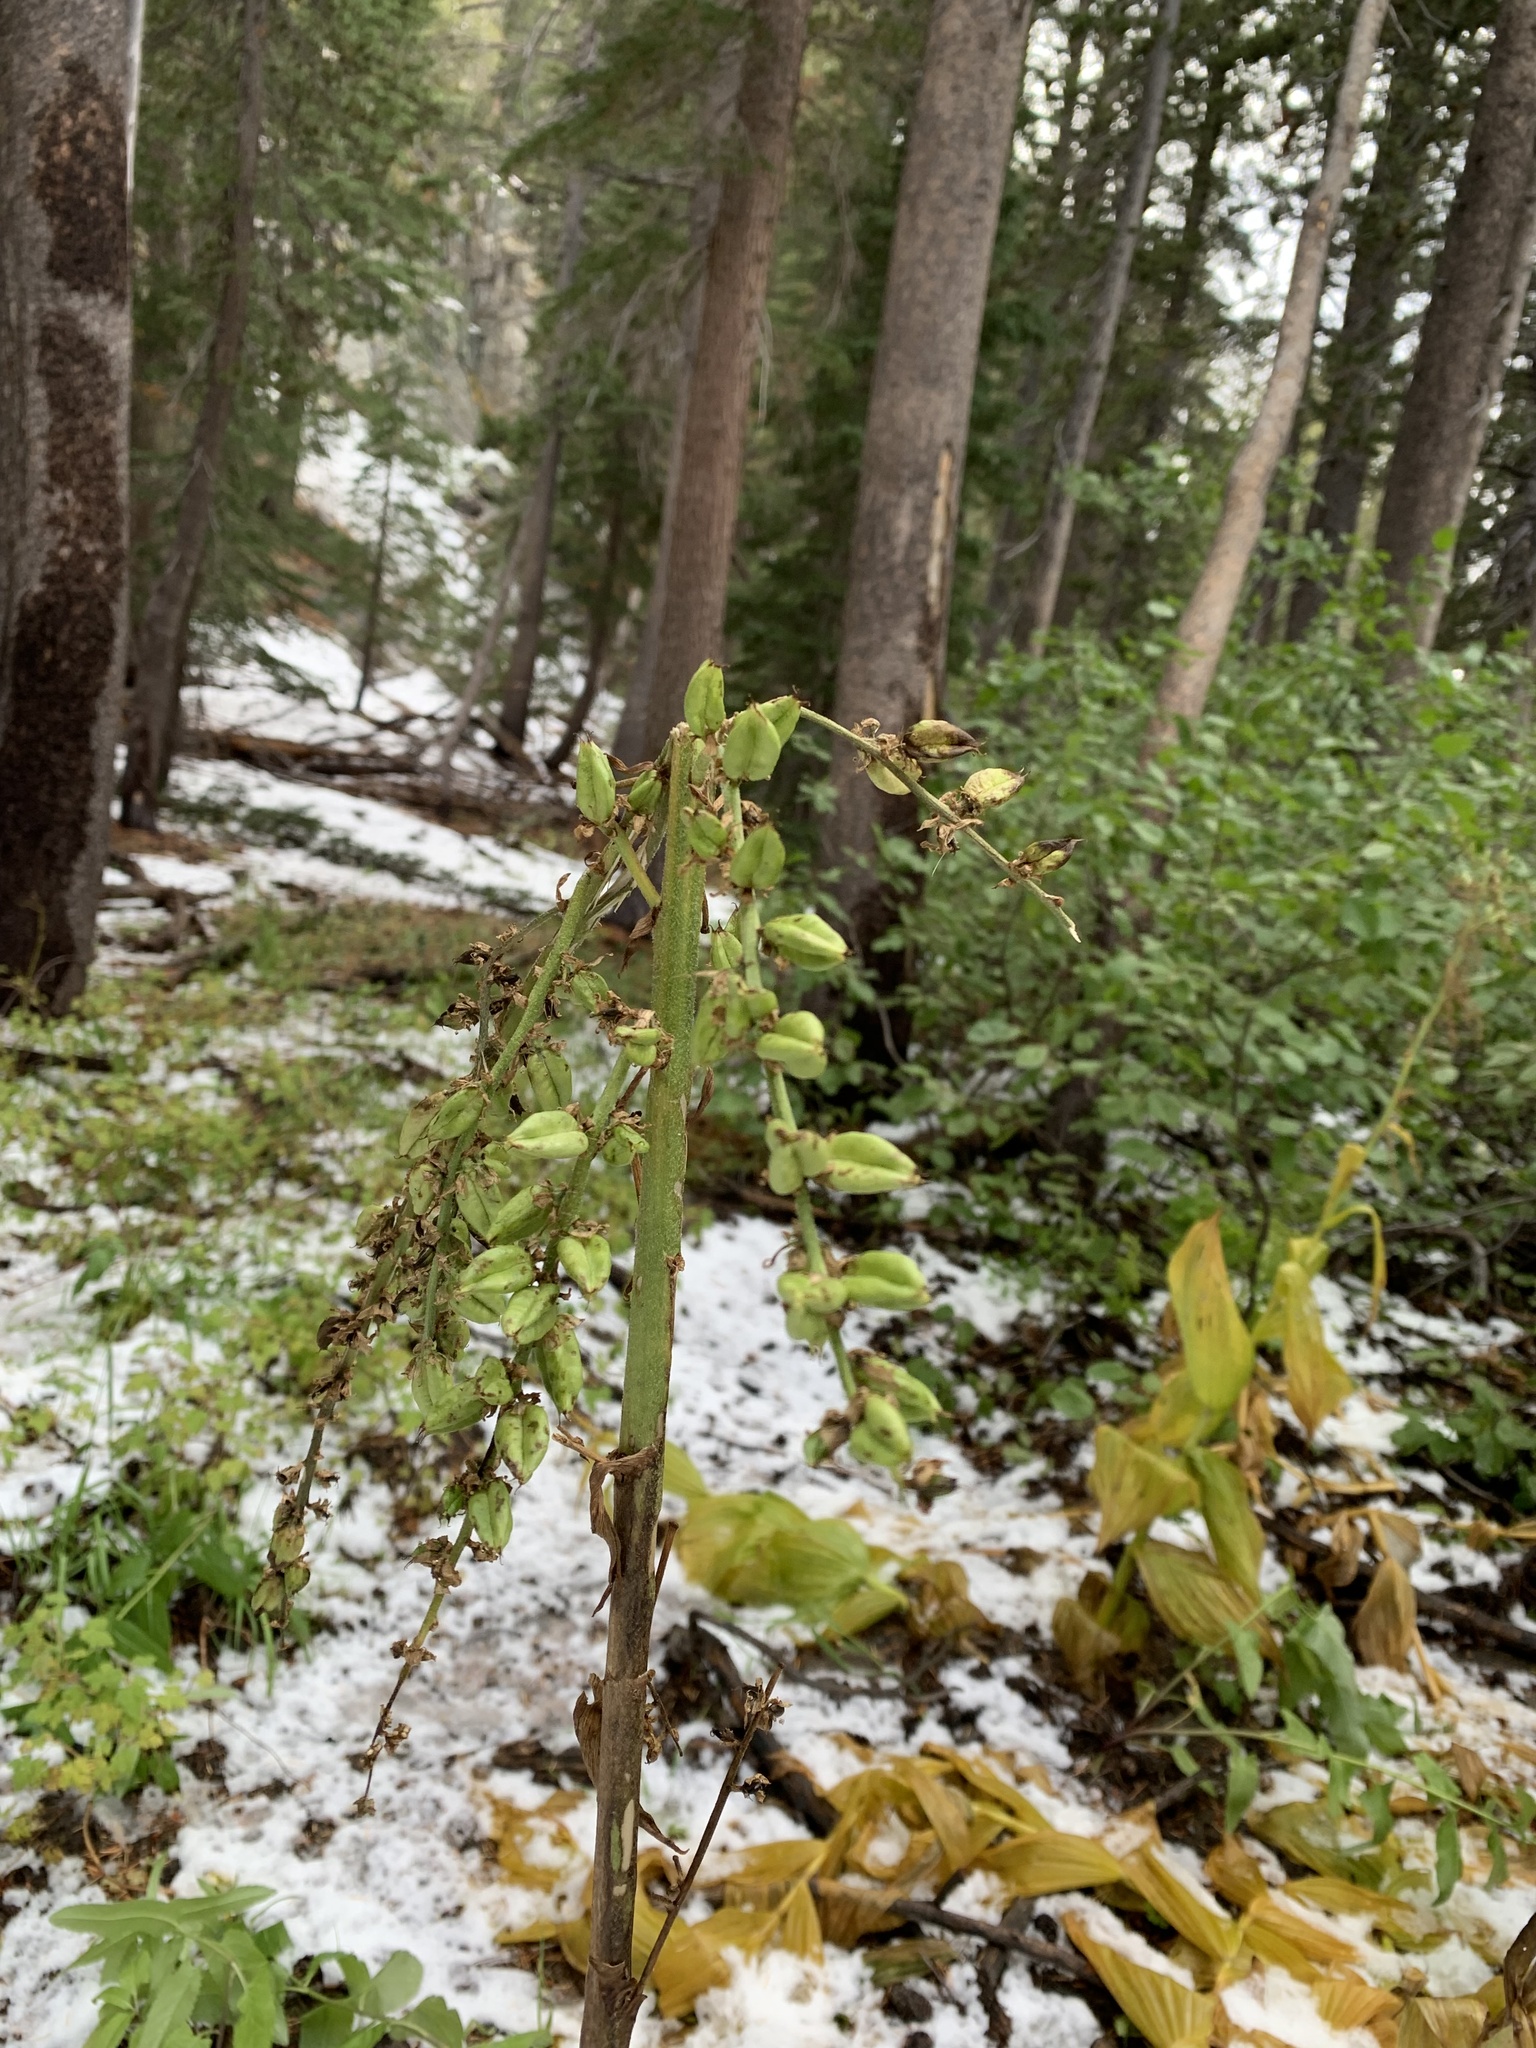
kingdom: Plantae
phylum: Tracheophyta
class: Liliopsida
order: Liliales
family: Melanthiaceae
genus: Veratrum
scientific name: Veratrum californicum
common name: California veratrum
